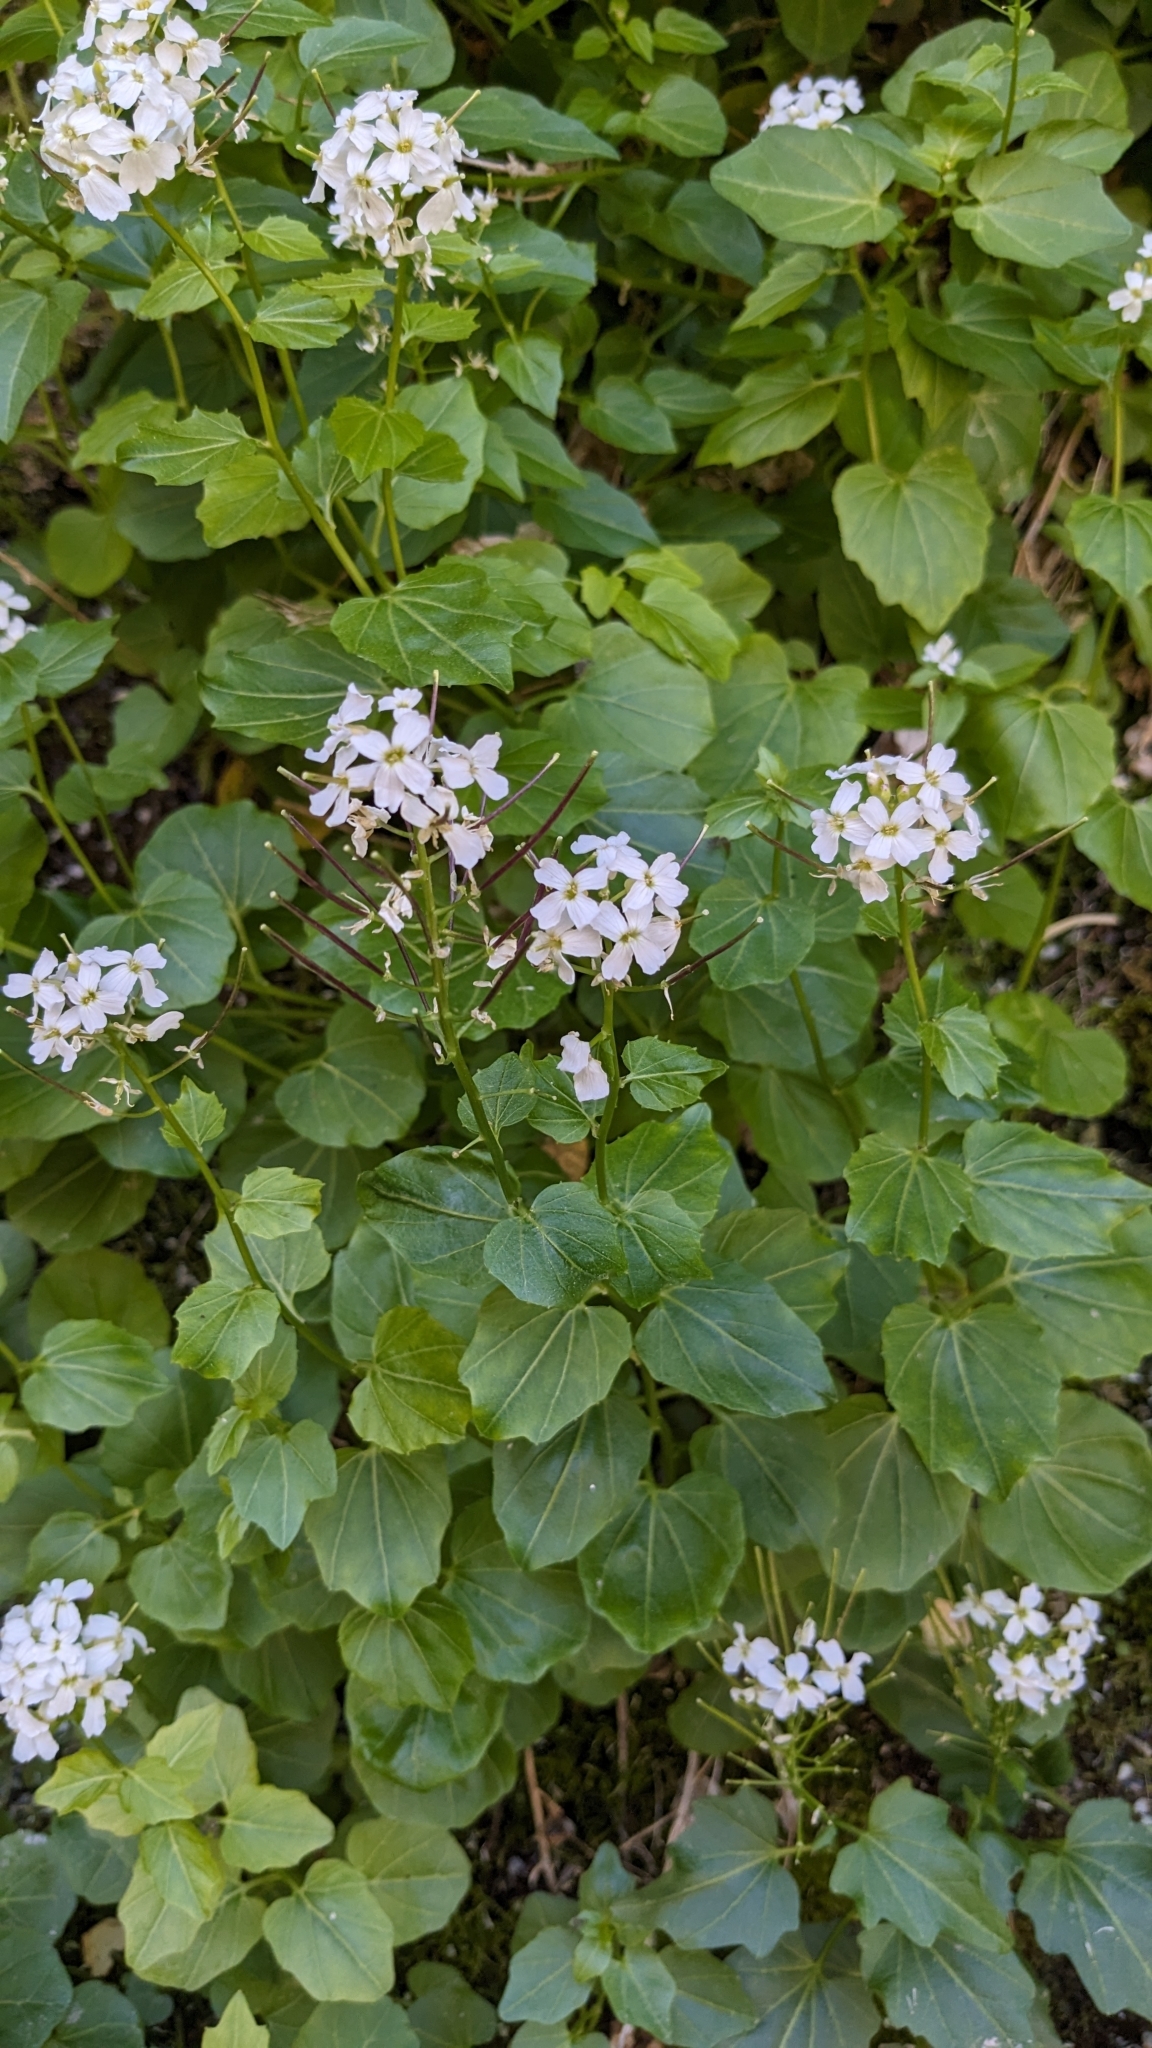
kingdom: Plantae
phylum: Tracheophyta
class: Magnoliopsida
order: Brassicales
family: Brassicaceae
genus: Cardamine
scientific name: Cardamine cordifolia
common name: Heart-leaf bittercress
